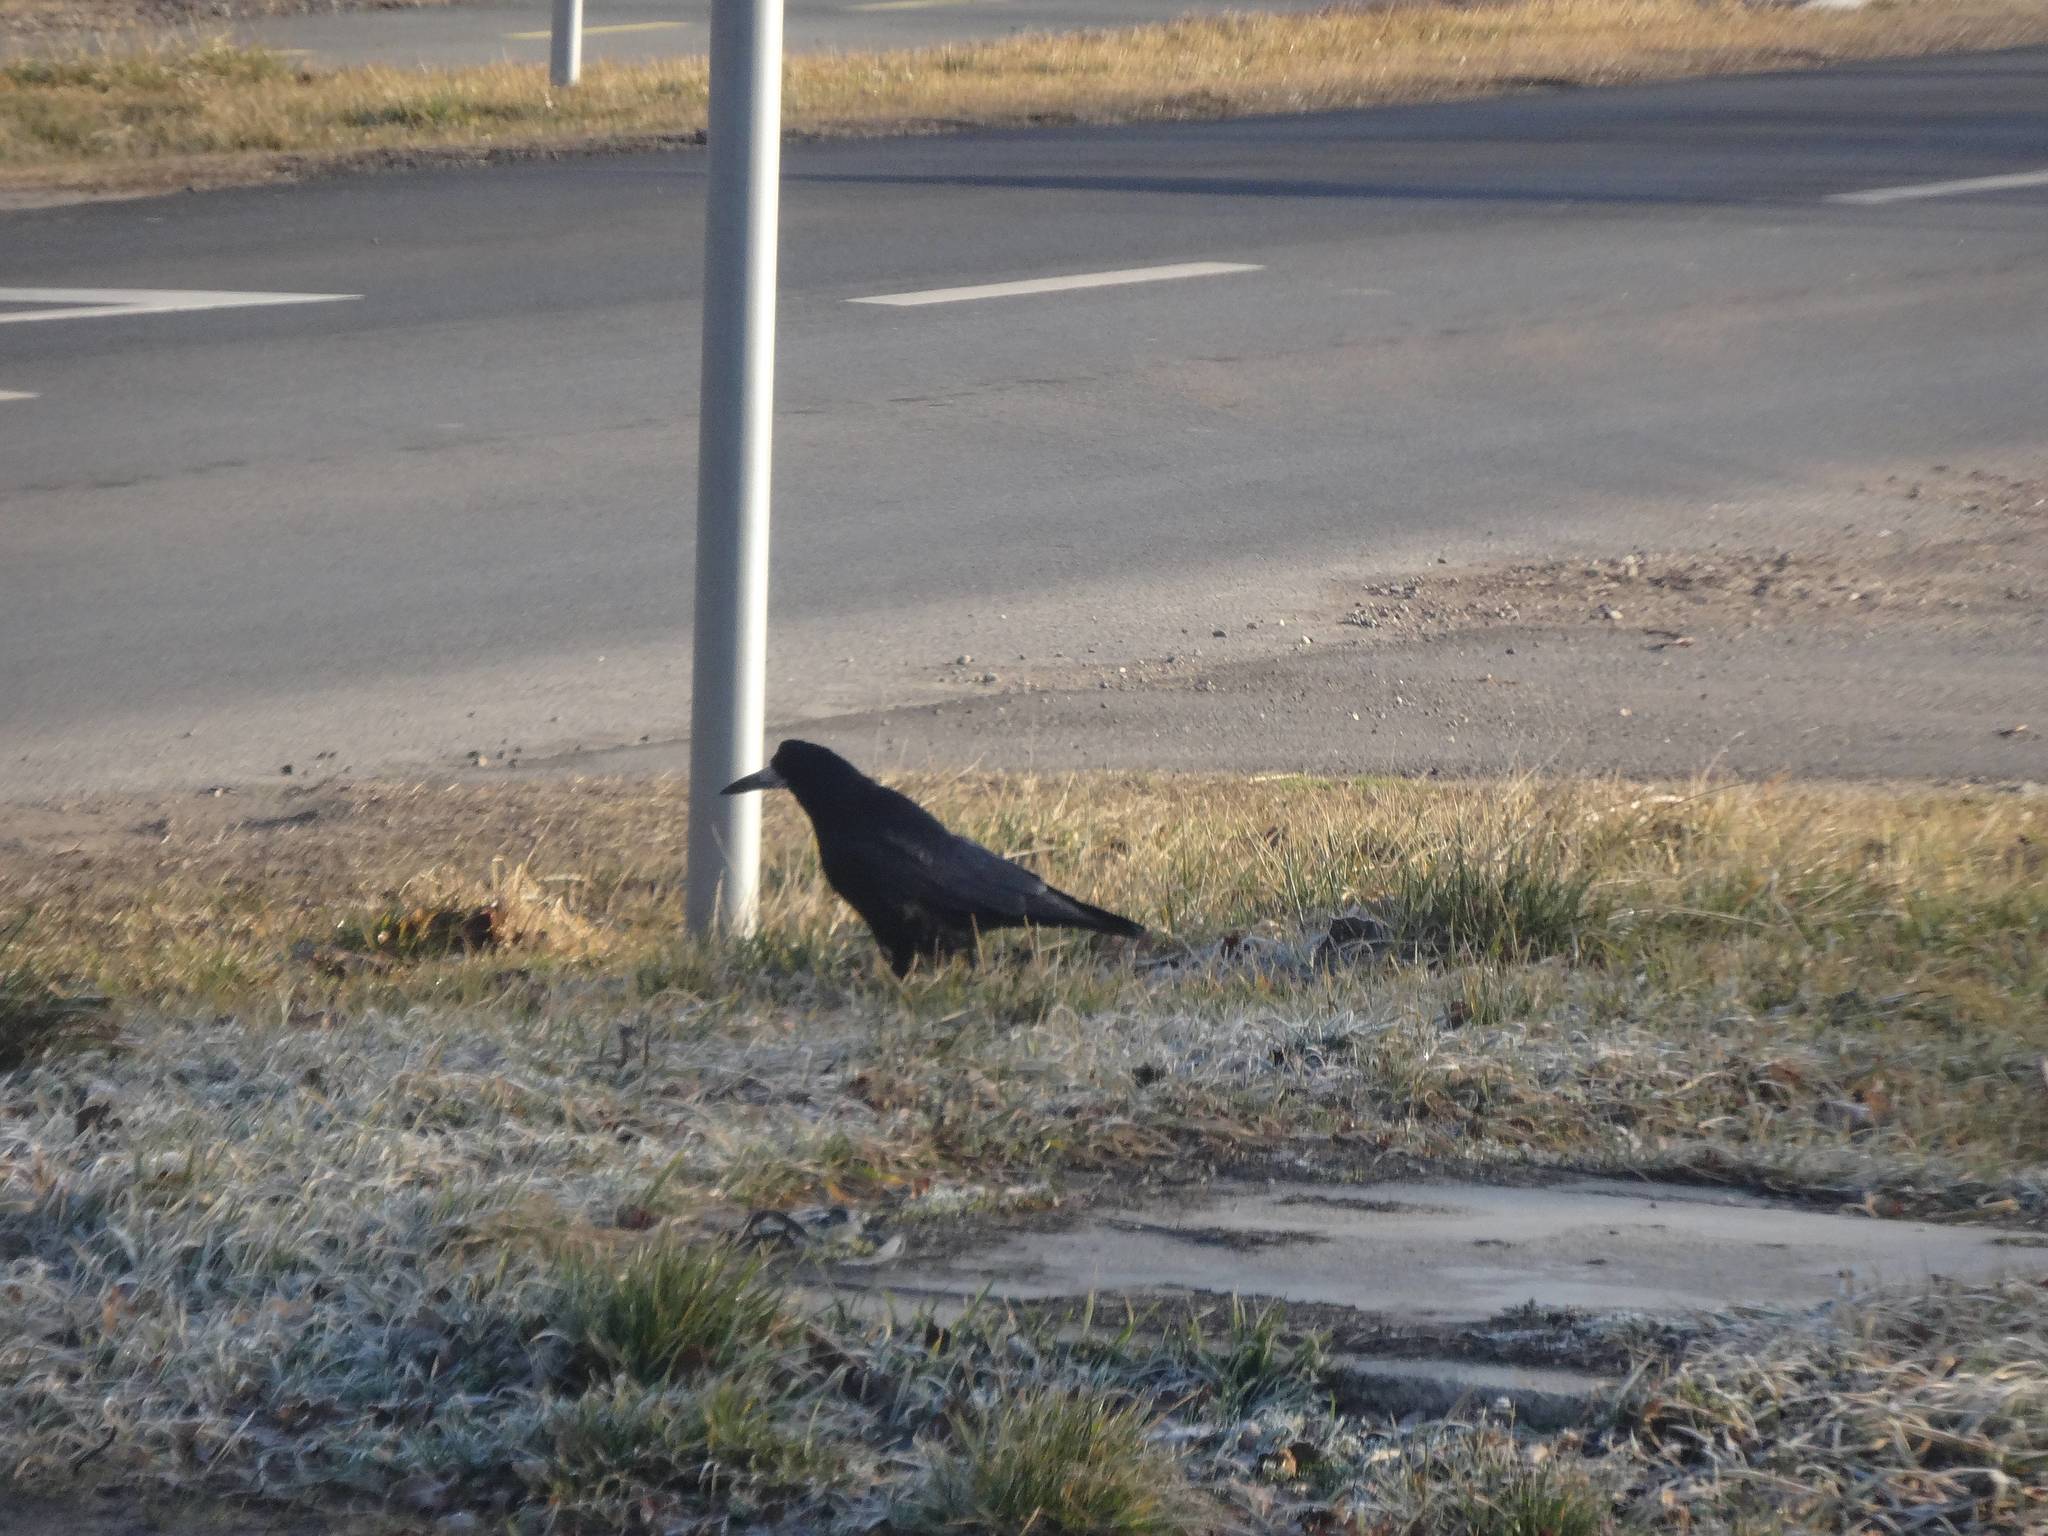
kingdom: Animalia
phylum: Chordata
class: Aves
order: Passeriformes
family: Corvidae
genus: Corvus
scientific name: Corvus frugilegus
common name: Rook
